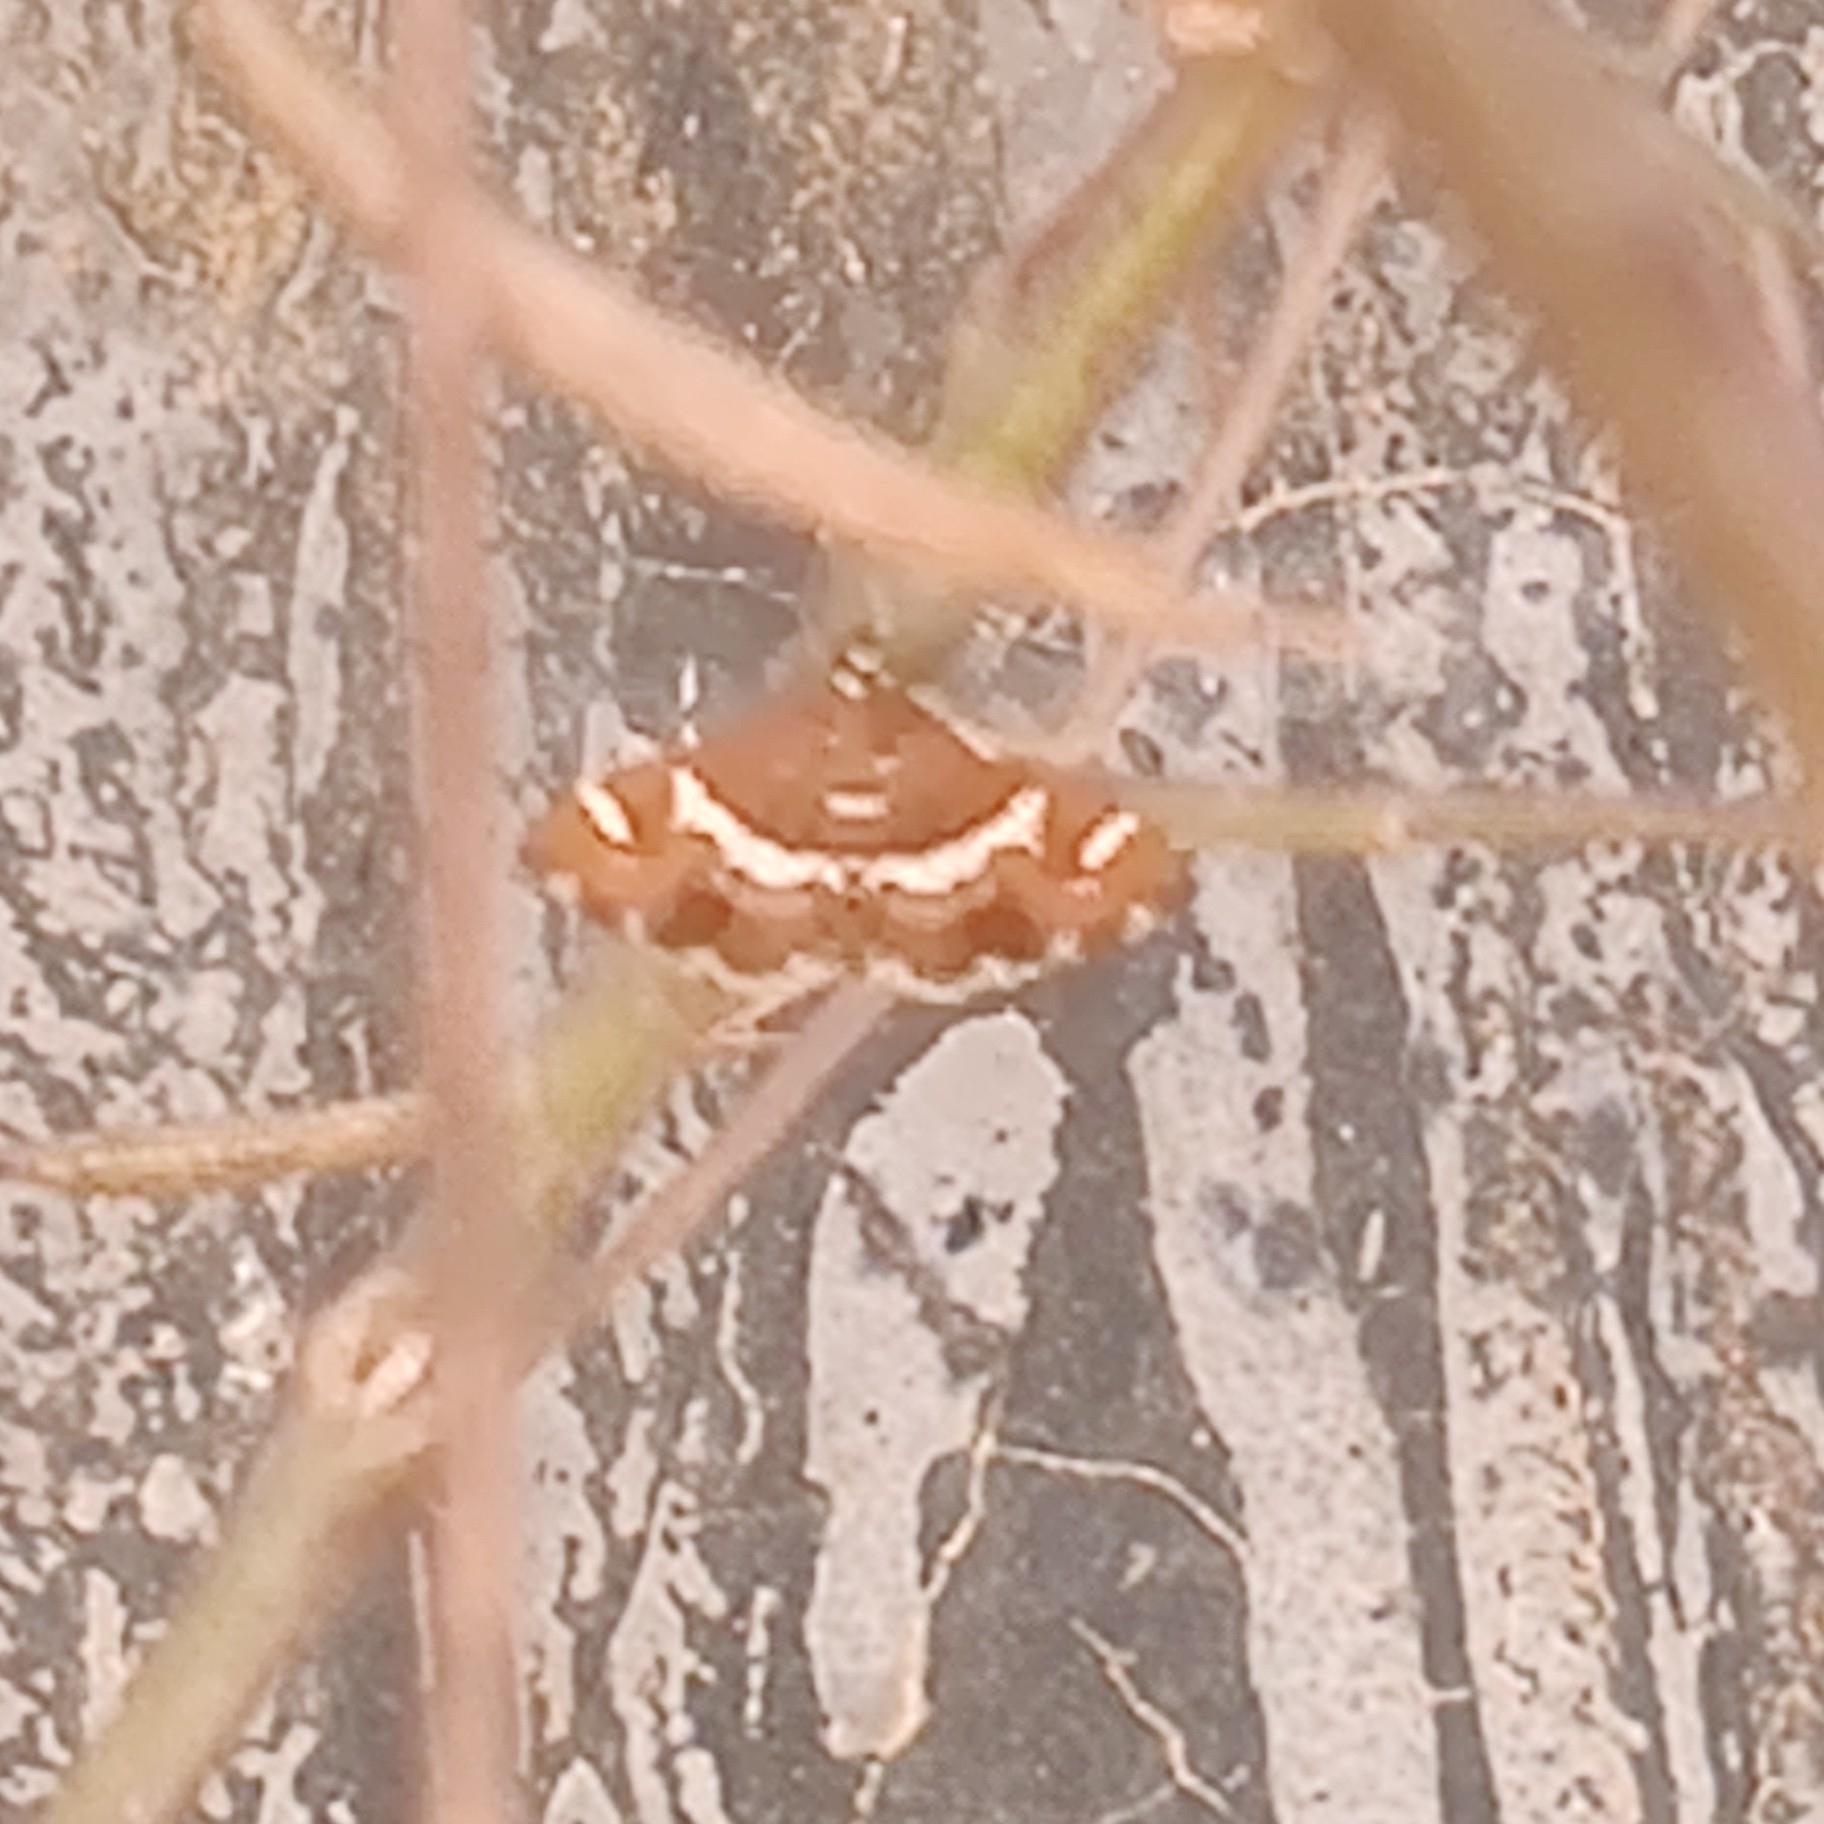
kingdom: Animalia
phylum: Arthropoda
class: Insecta
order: Lepidoptera
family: Crambidae
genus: Spoladea
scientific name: Spoladea recurvalis
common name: Beet webworm moth
